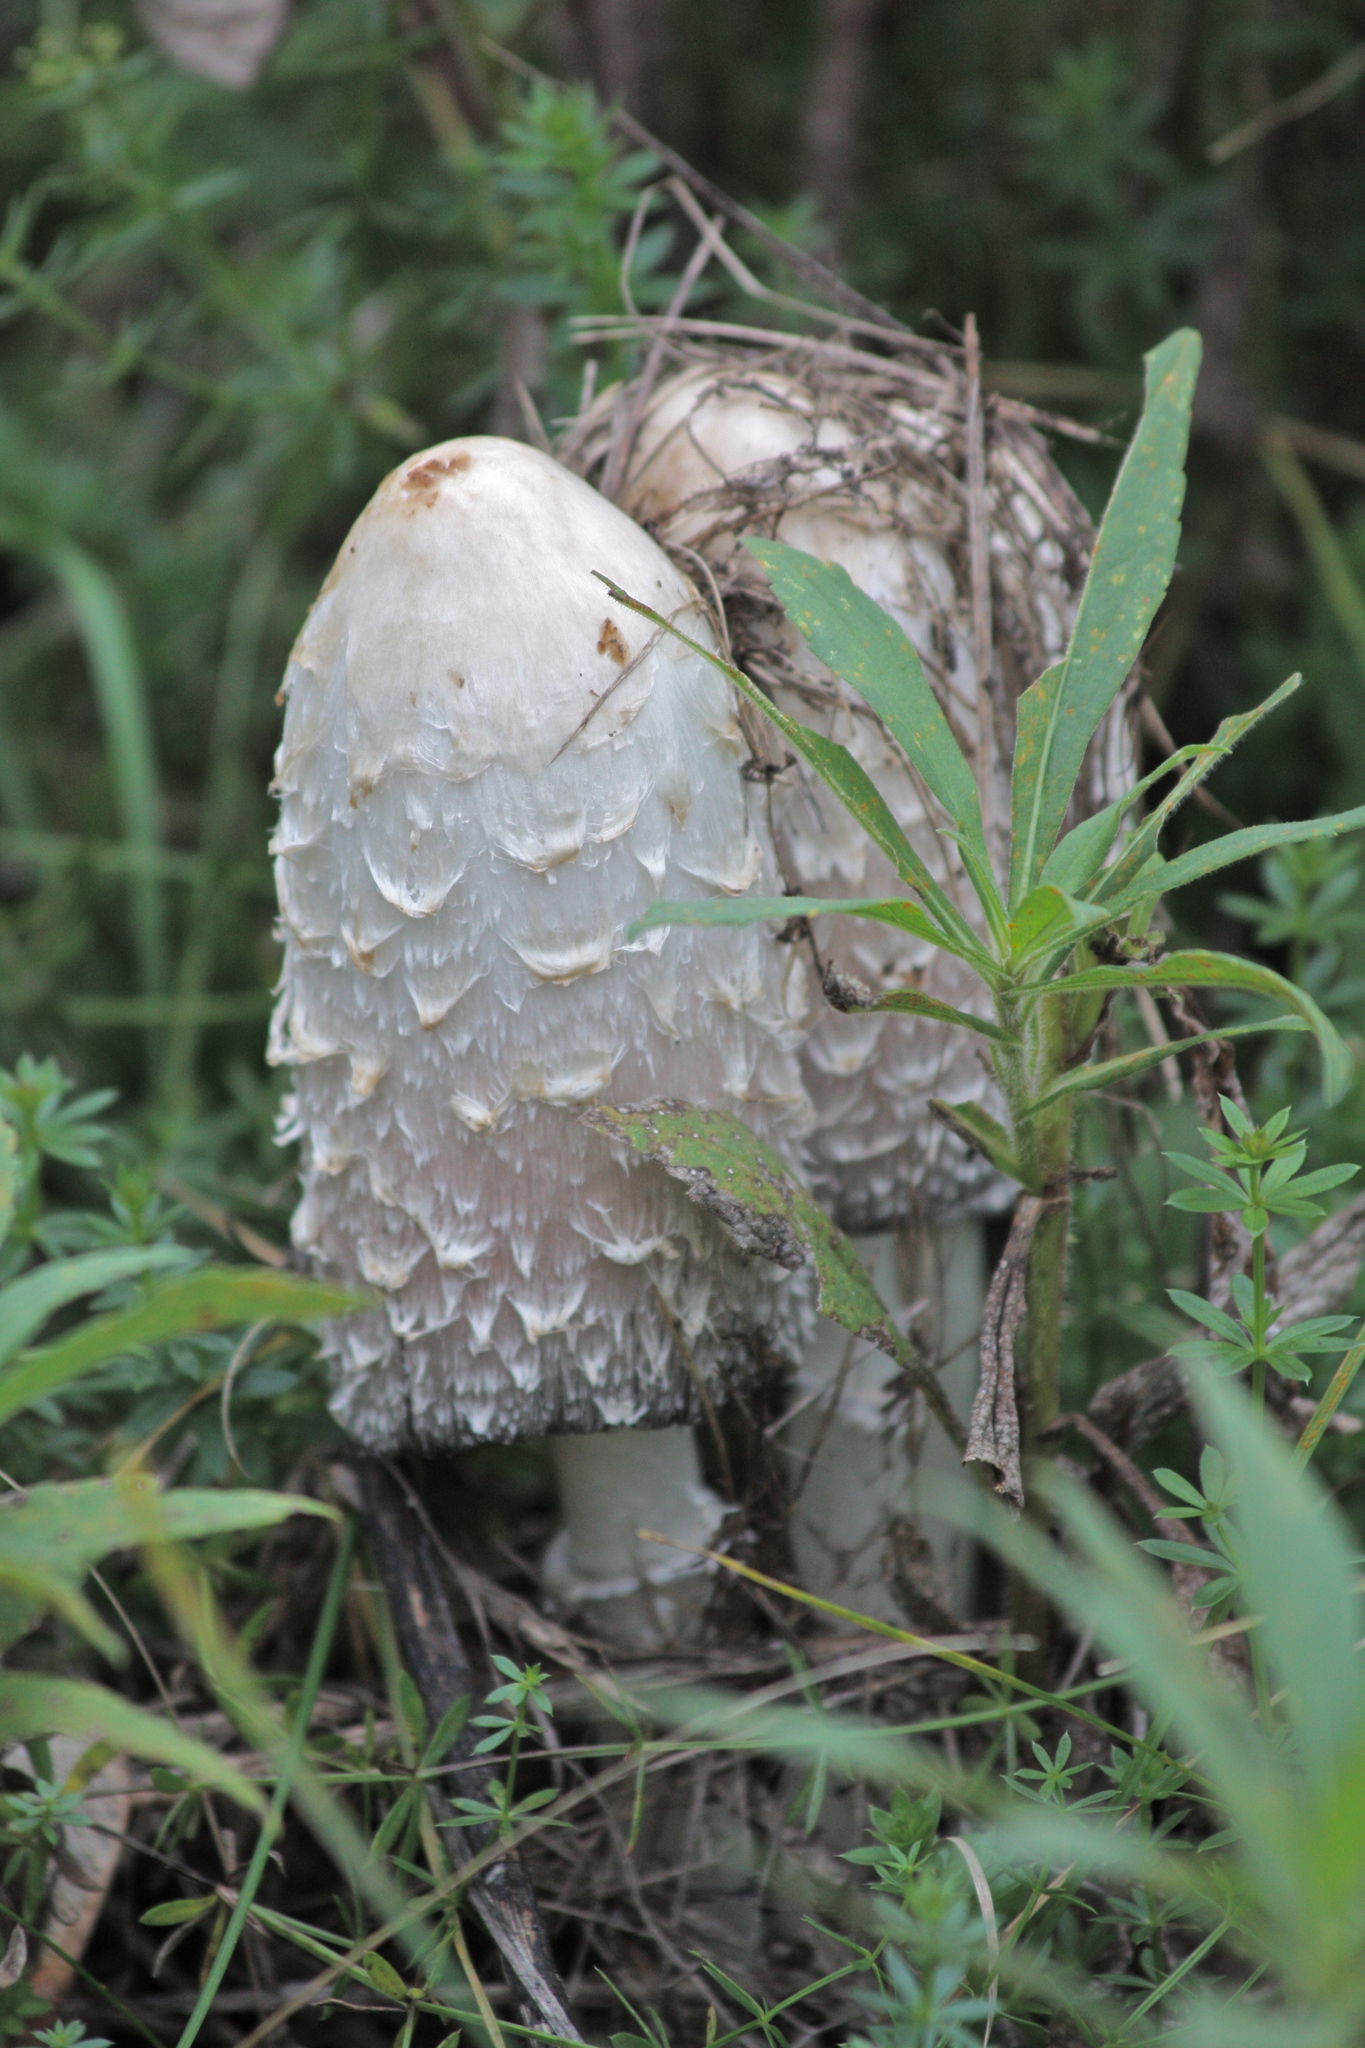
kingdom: Fungi
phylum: Basidiomycota
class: Agaricomycetes
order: Agaricales
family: Agaricaceae
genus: Coprinus
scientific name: Coprinus comatus
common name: Lawyer's wig
